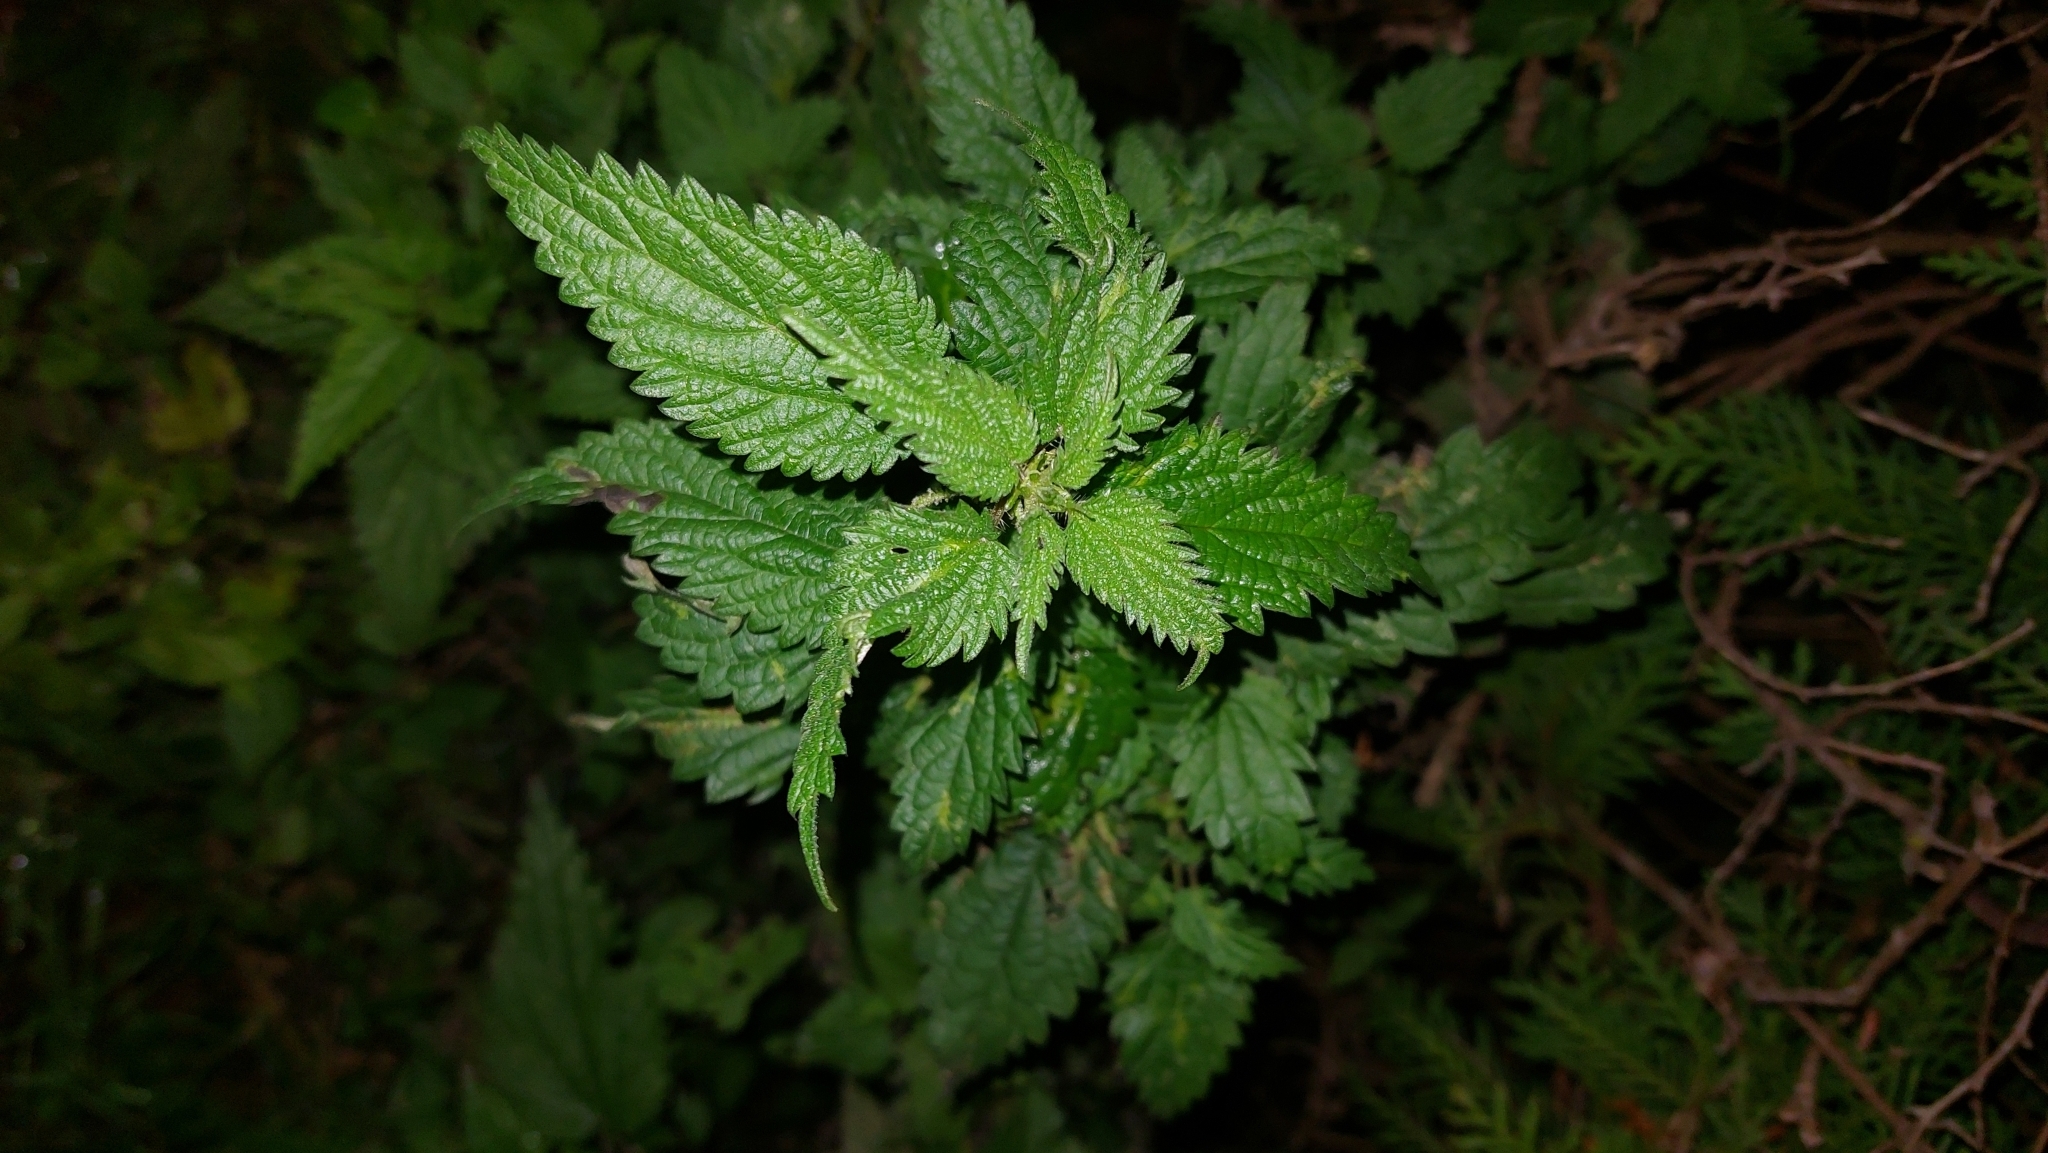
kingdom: Plantae
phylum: Tracheophyta
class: Magnoliopsida
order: Rosales
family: Urticaceae
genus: Urtica
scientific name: Urtica dioica
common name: Common nettle
